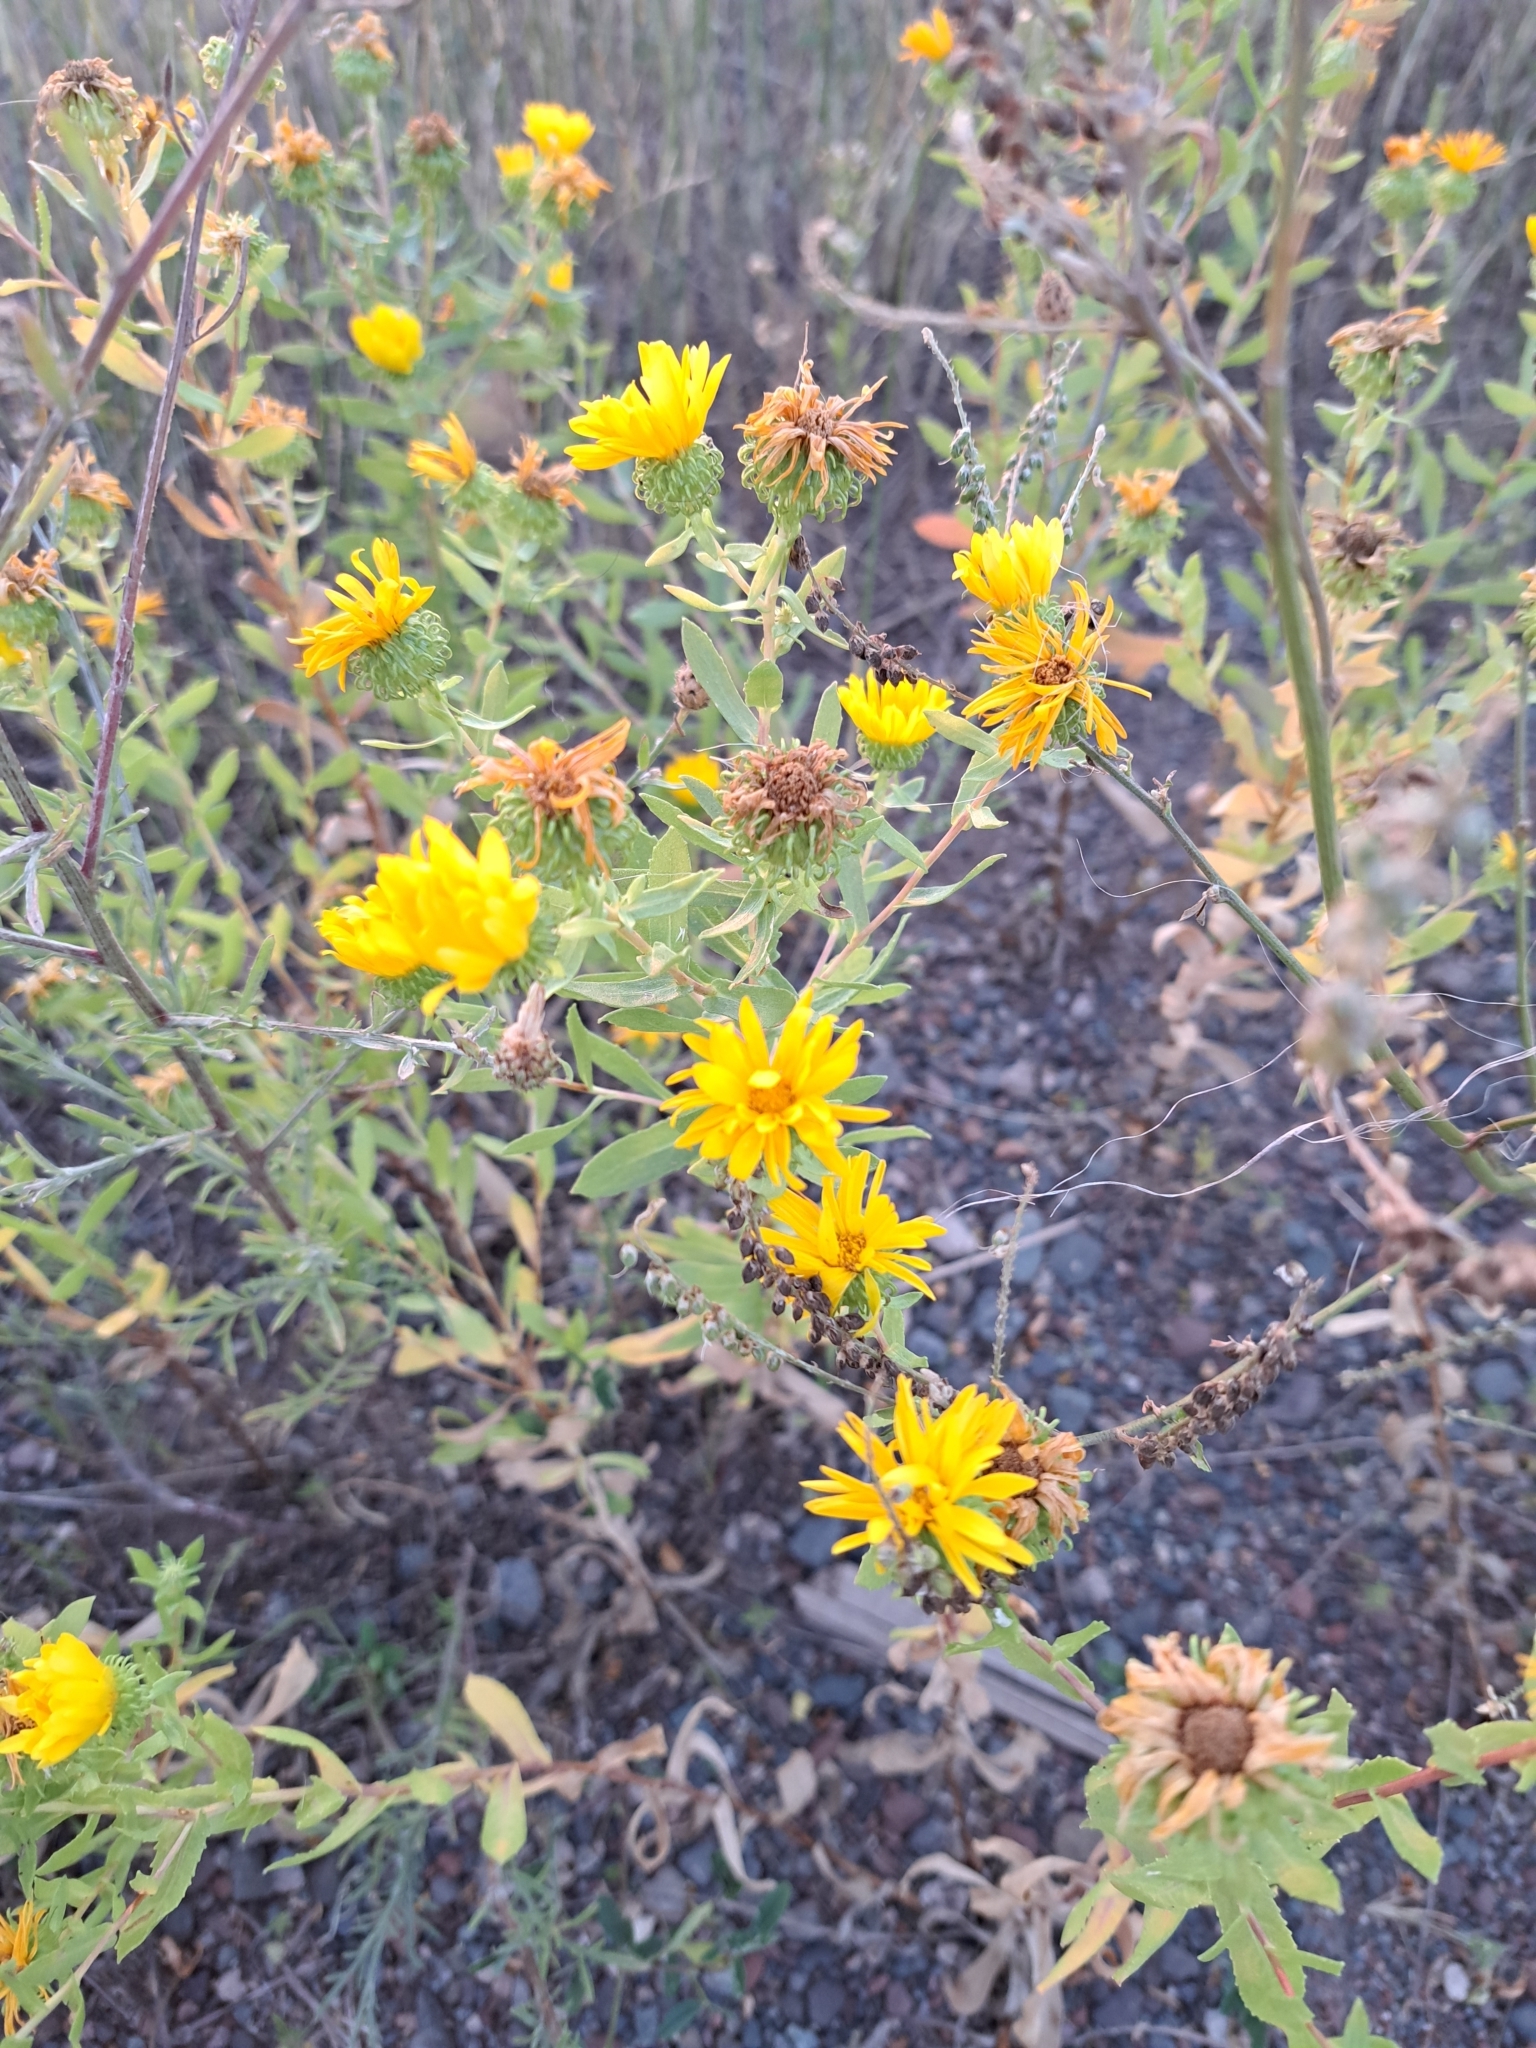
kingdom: Plantae
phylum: Tracheophyta
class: Magnoliopsida
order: Asterales
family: Asteraceae
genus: Grindelia
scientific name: Grindelia squarrosa
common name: Curly-cup gumweed
